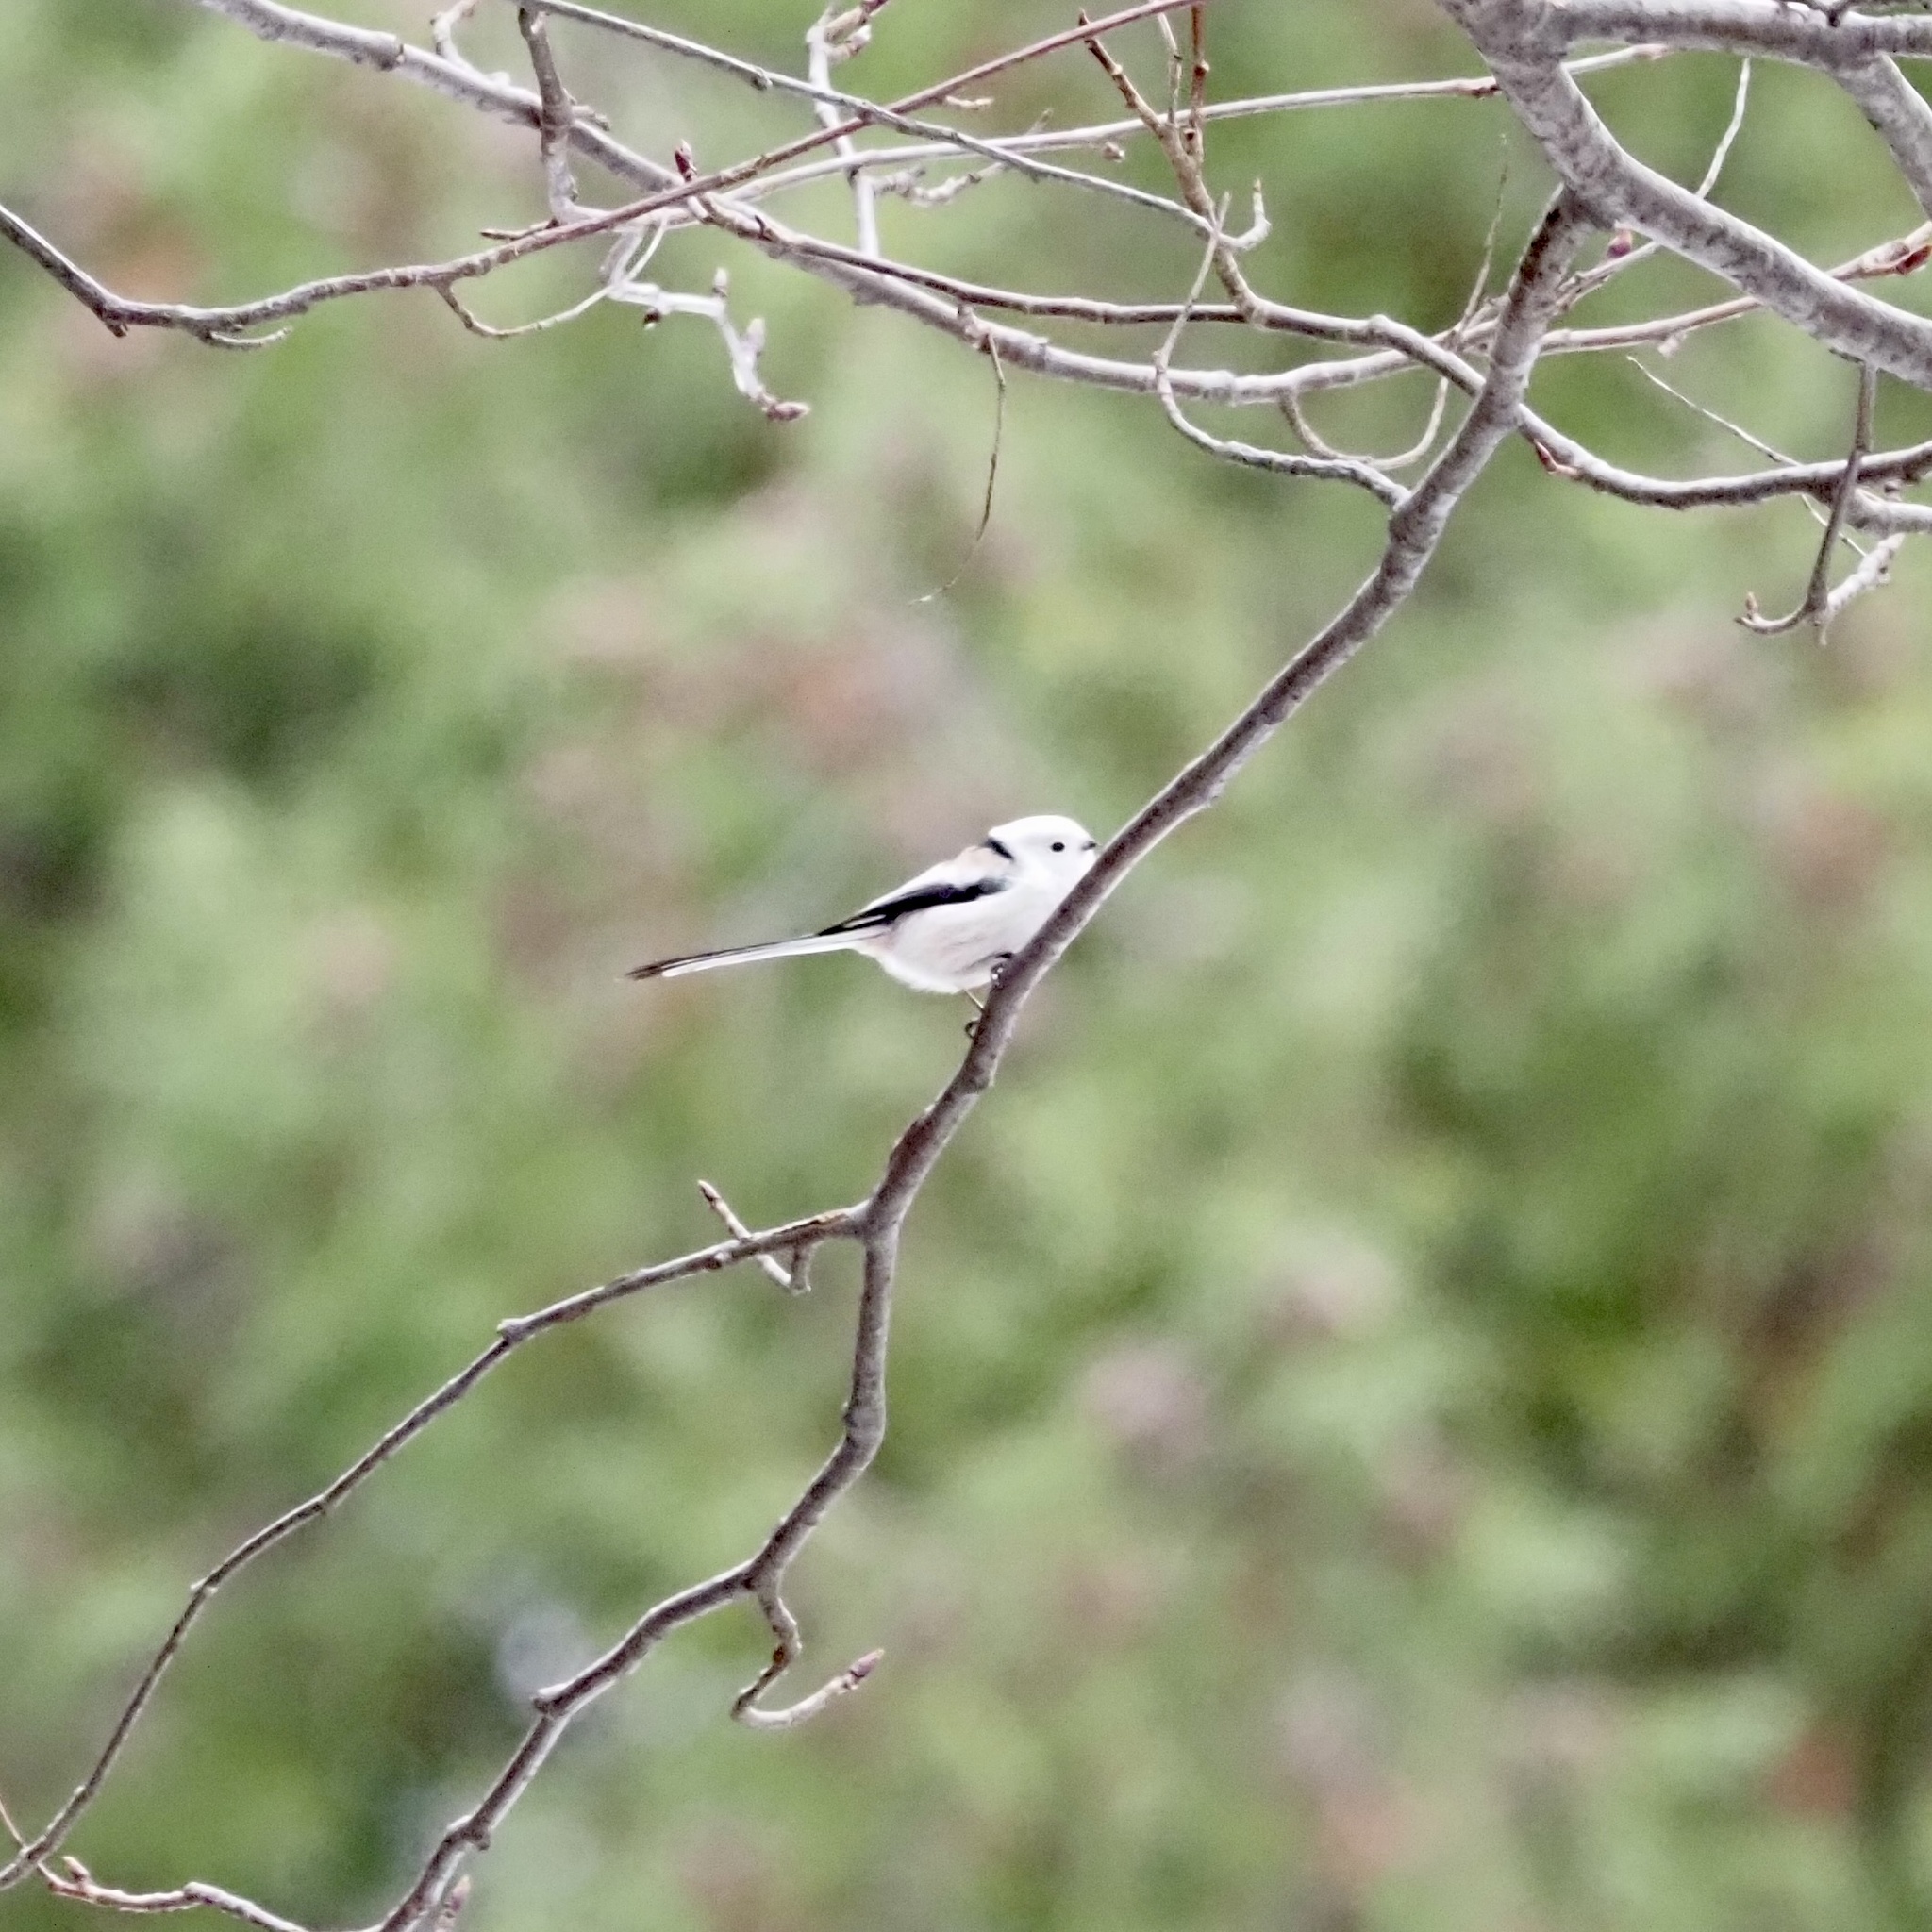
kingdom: Animalia
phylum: Chordata
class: Aves
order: Passeriformes
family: Aegithalidae
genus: Aegithalos
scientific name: Aegithalos caudatus
